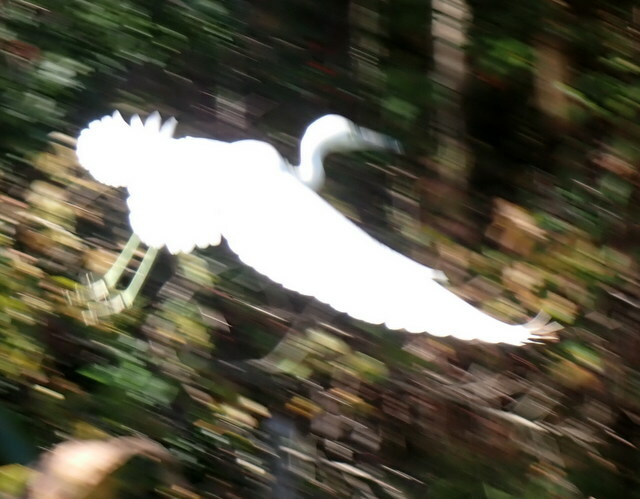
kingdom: Animalia
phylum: Chordata
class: Aves
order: Pelecaniformes
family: Ardeidae
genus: Egretta
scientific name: Egretta caerulea
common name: Little blue heron
